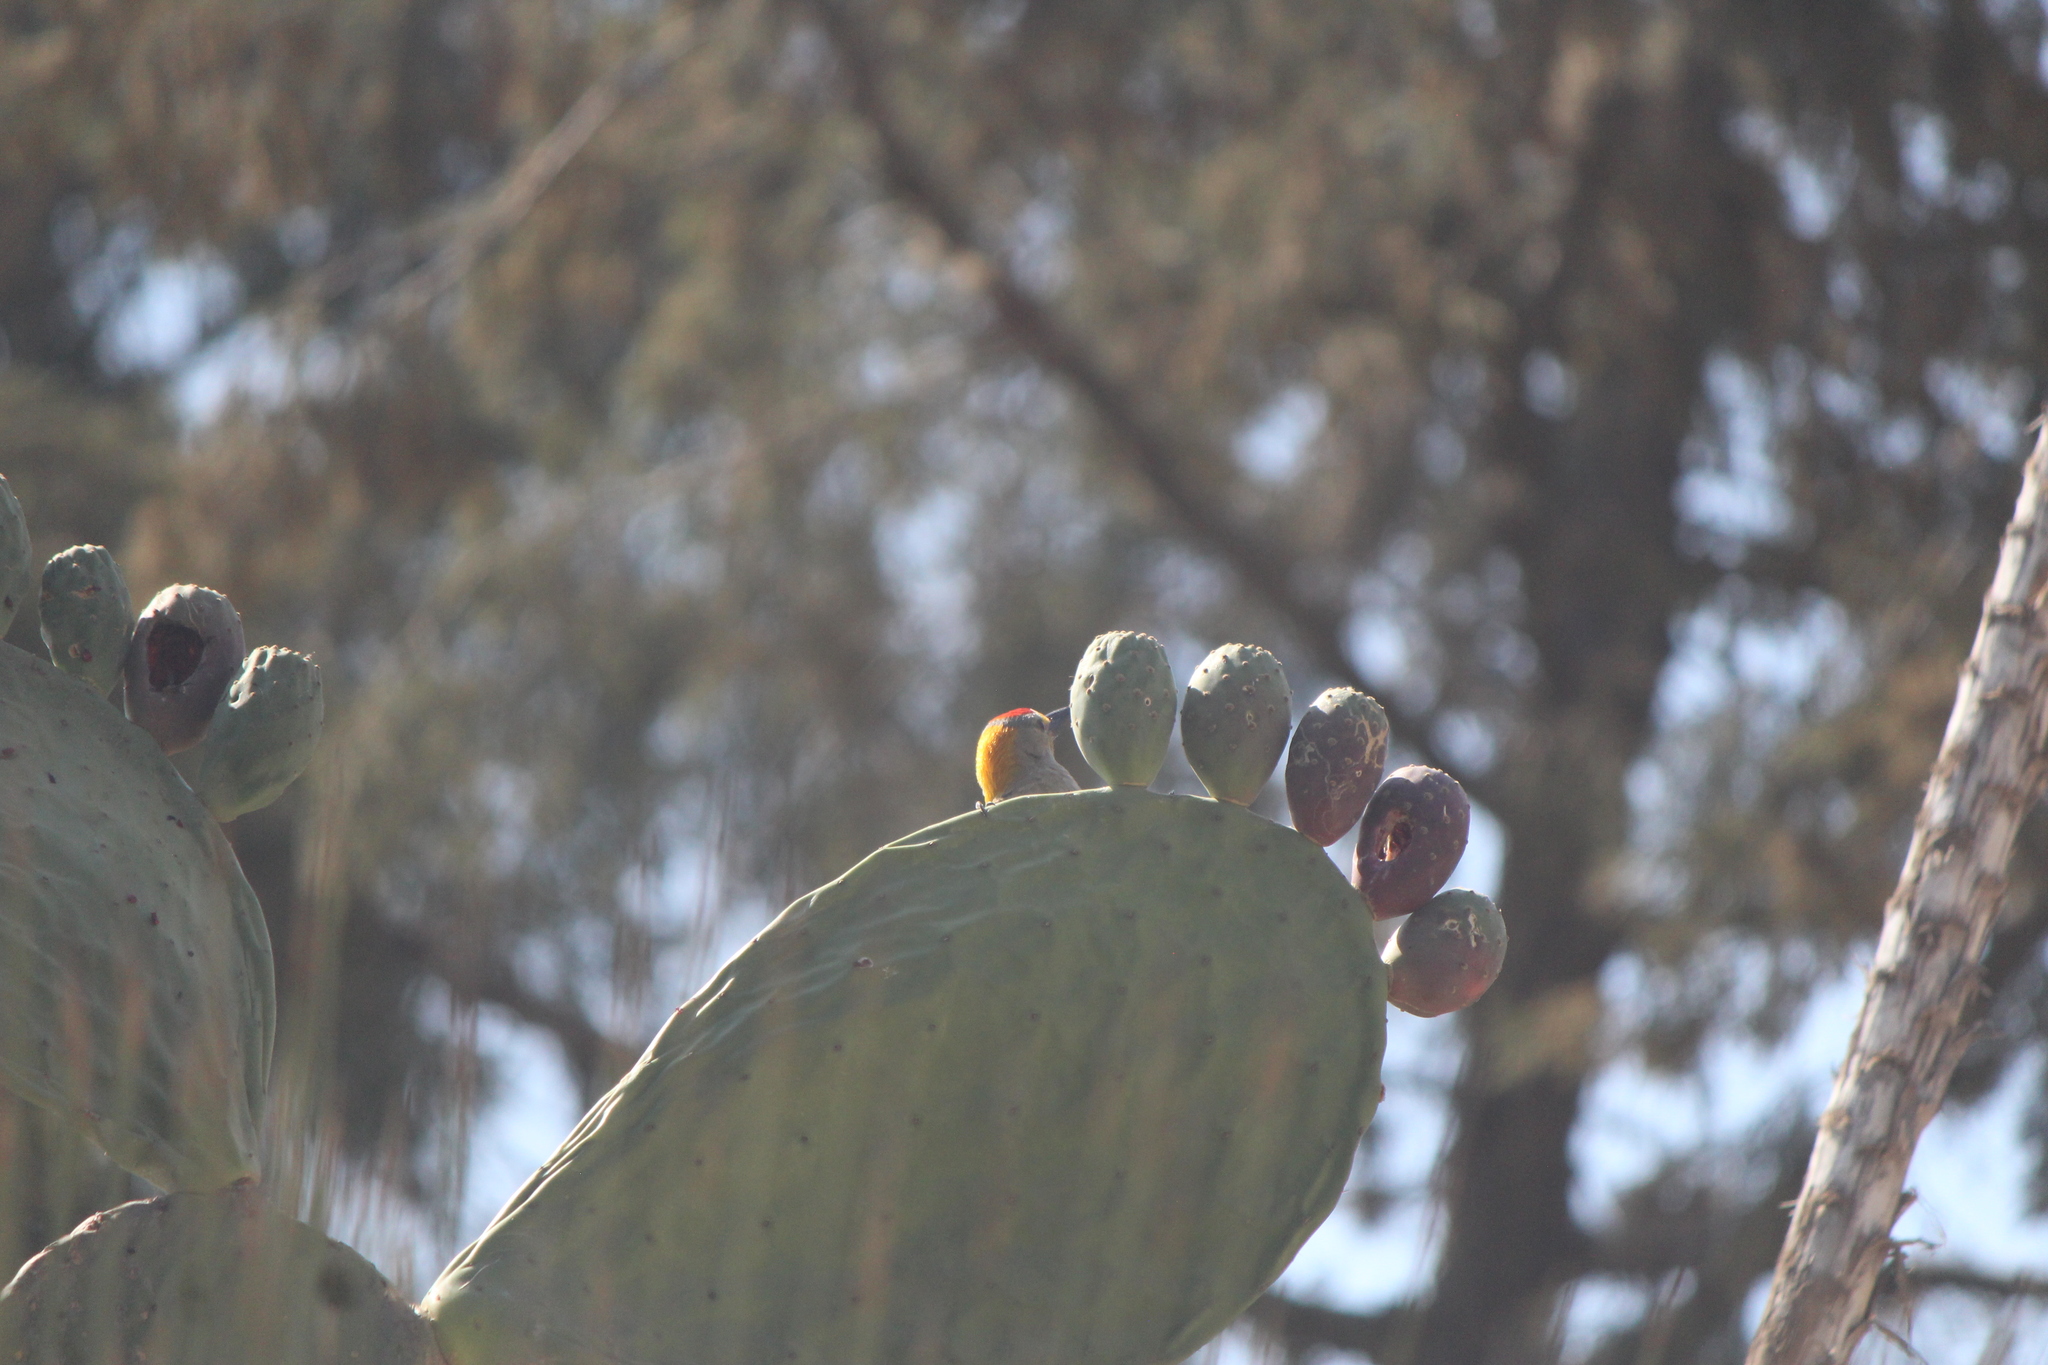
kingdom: Animalia
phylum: Chordata
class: Aves
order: Piciformes
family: Picidae
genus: Melanerpes
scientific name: Melanerpes aurifrons
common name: Golden-fronted woodpecker
